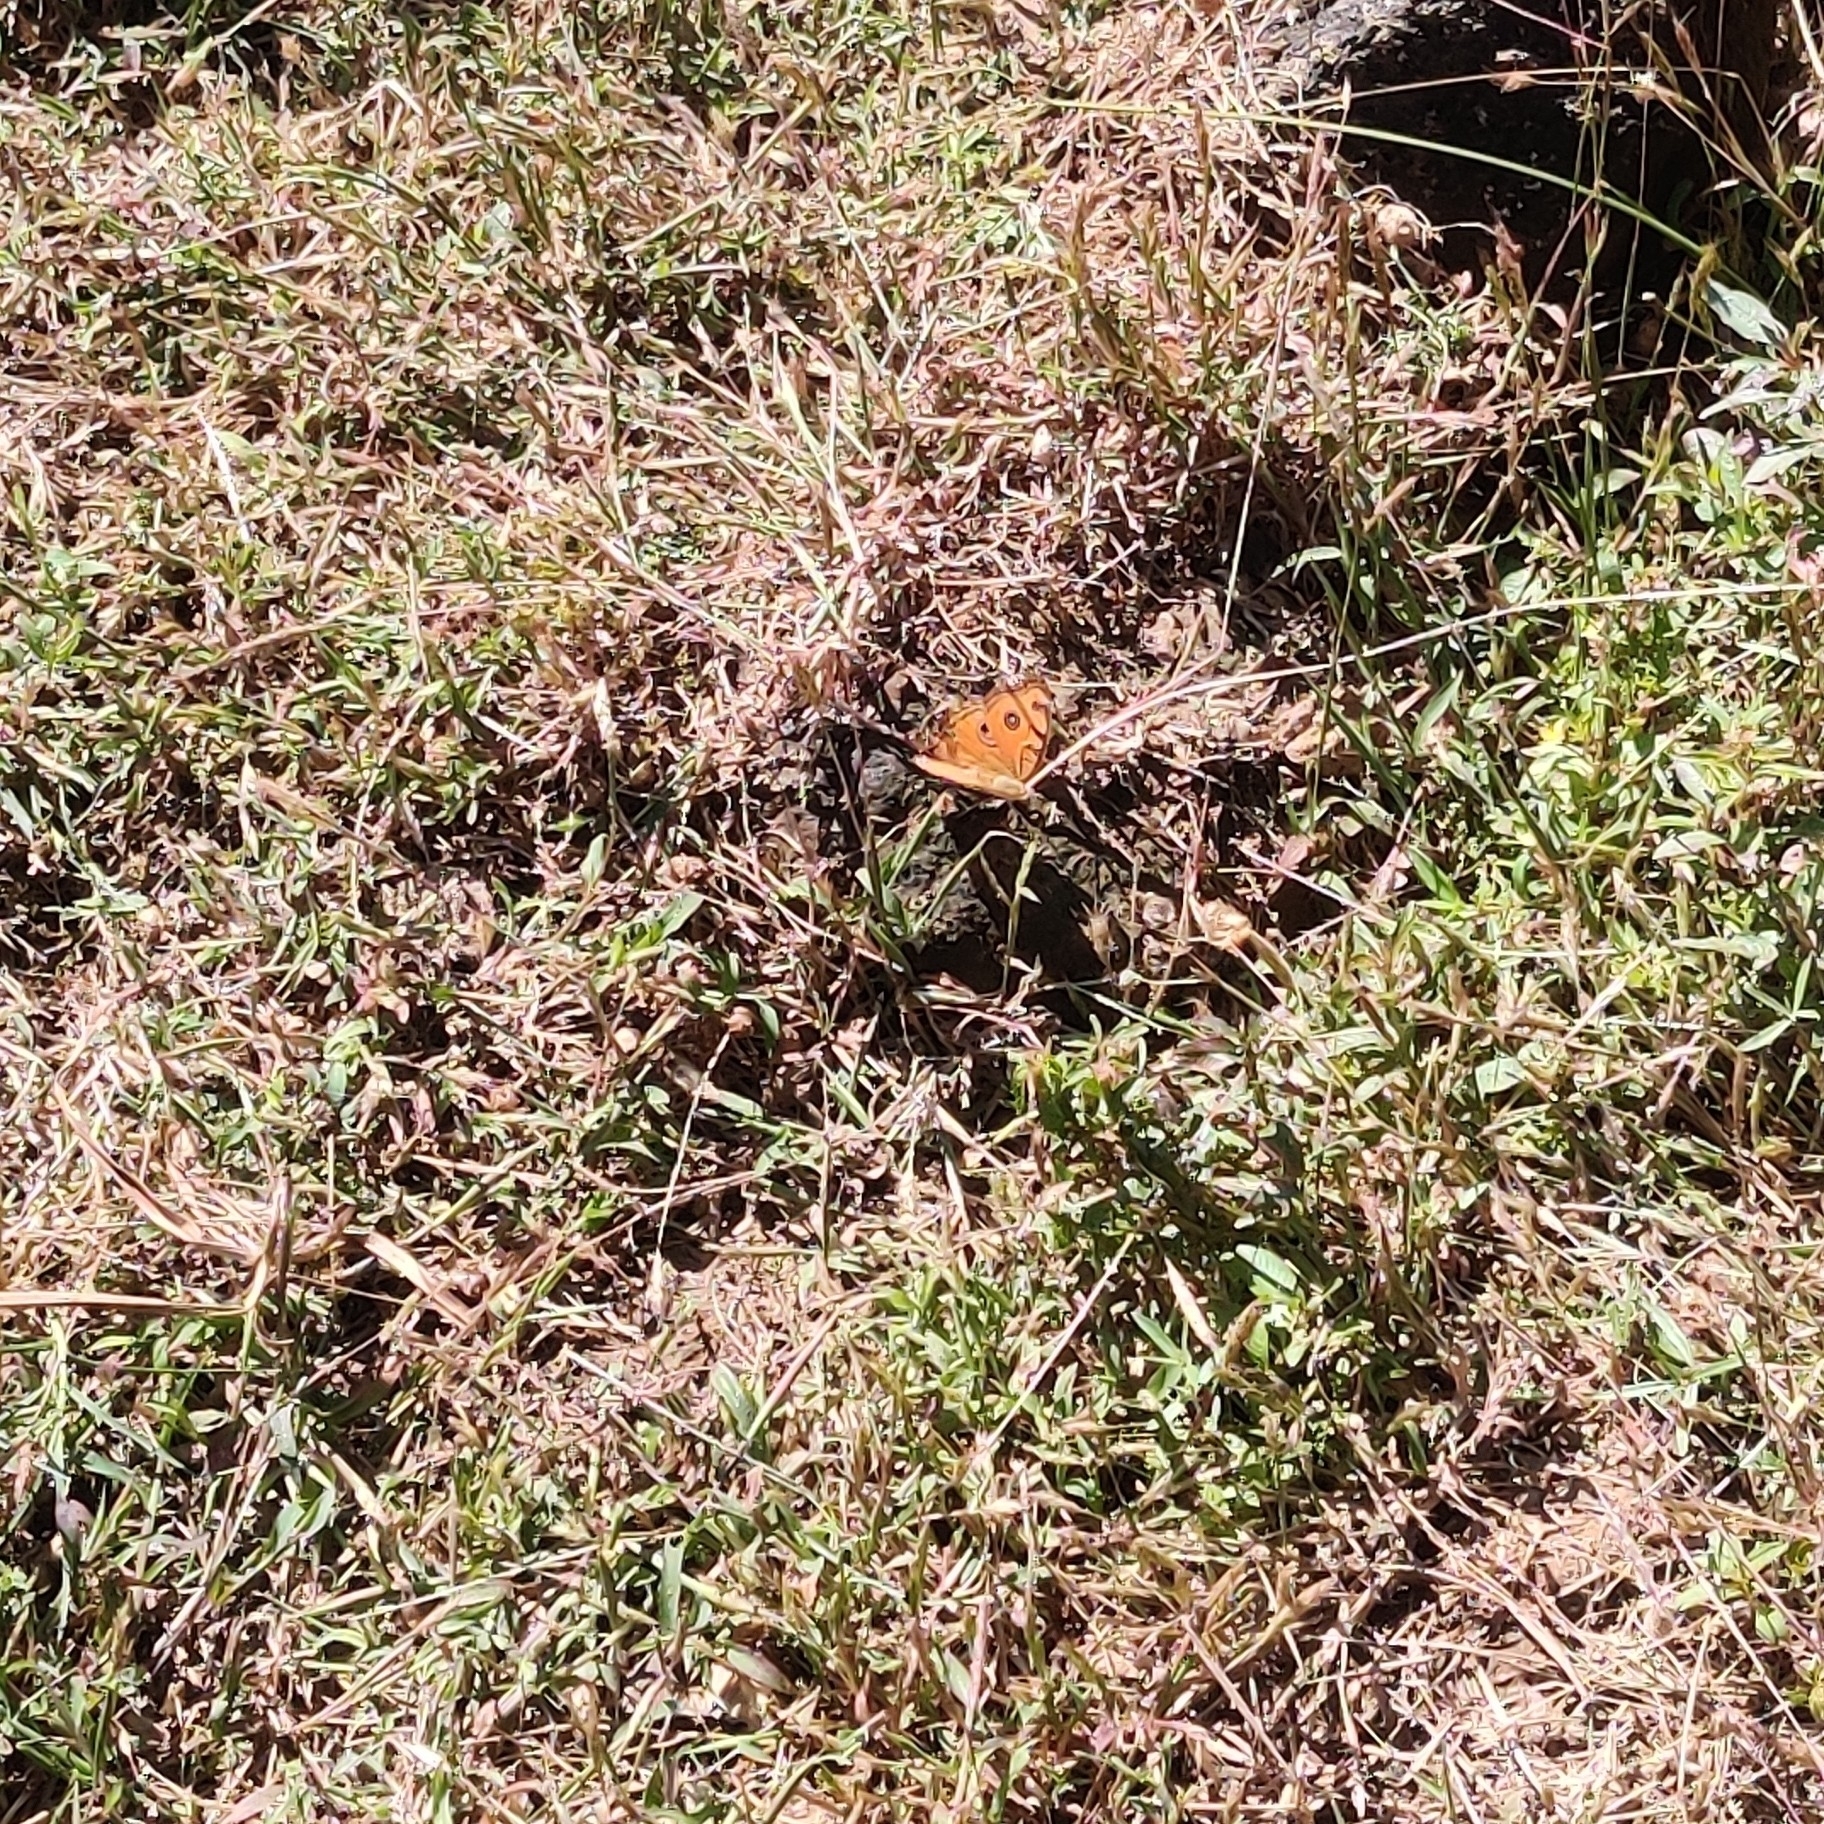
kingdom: Animalia
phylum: Arthropoda
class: Insecta
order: Lepidoptera
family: Nymphalidae
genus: Junonia
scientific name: Junonia almana
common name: Peacock pansy
